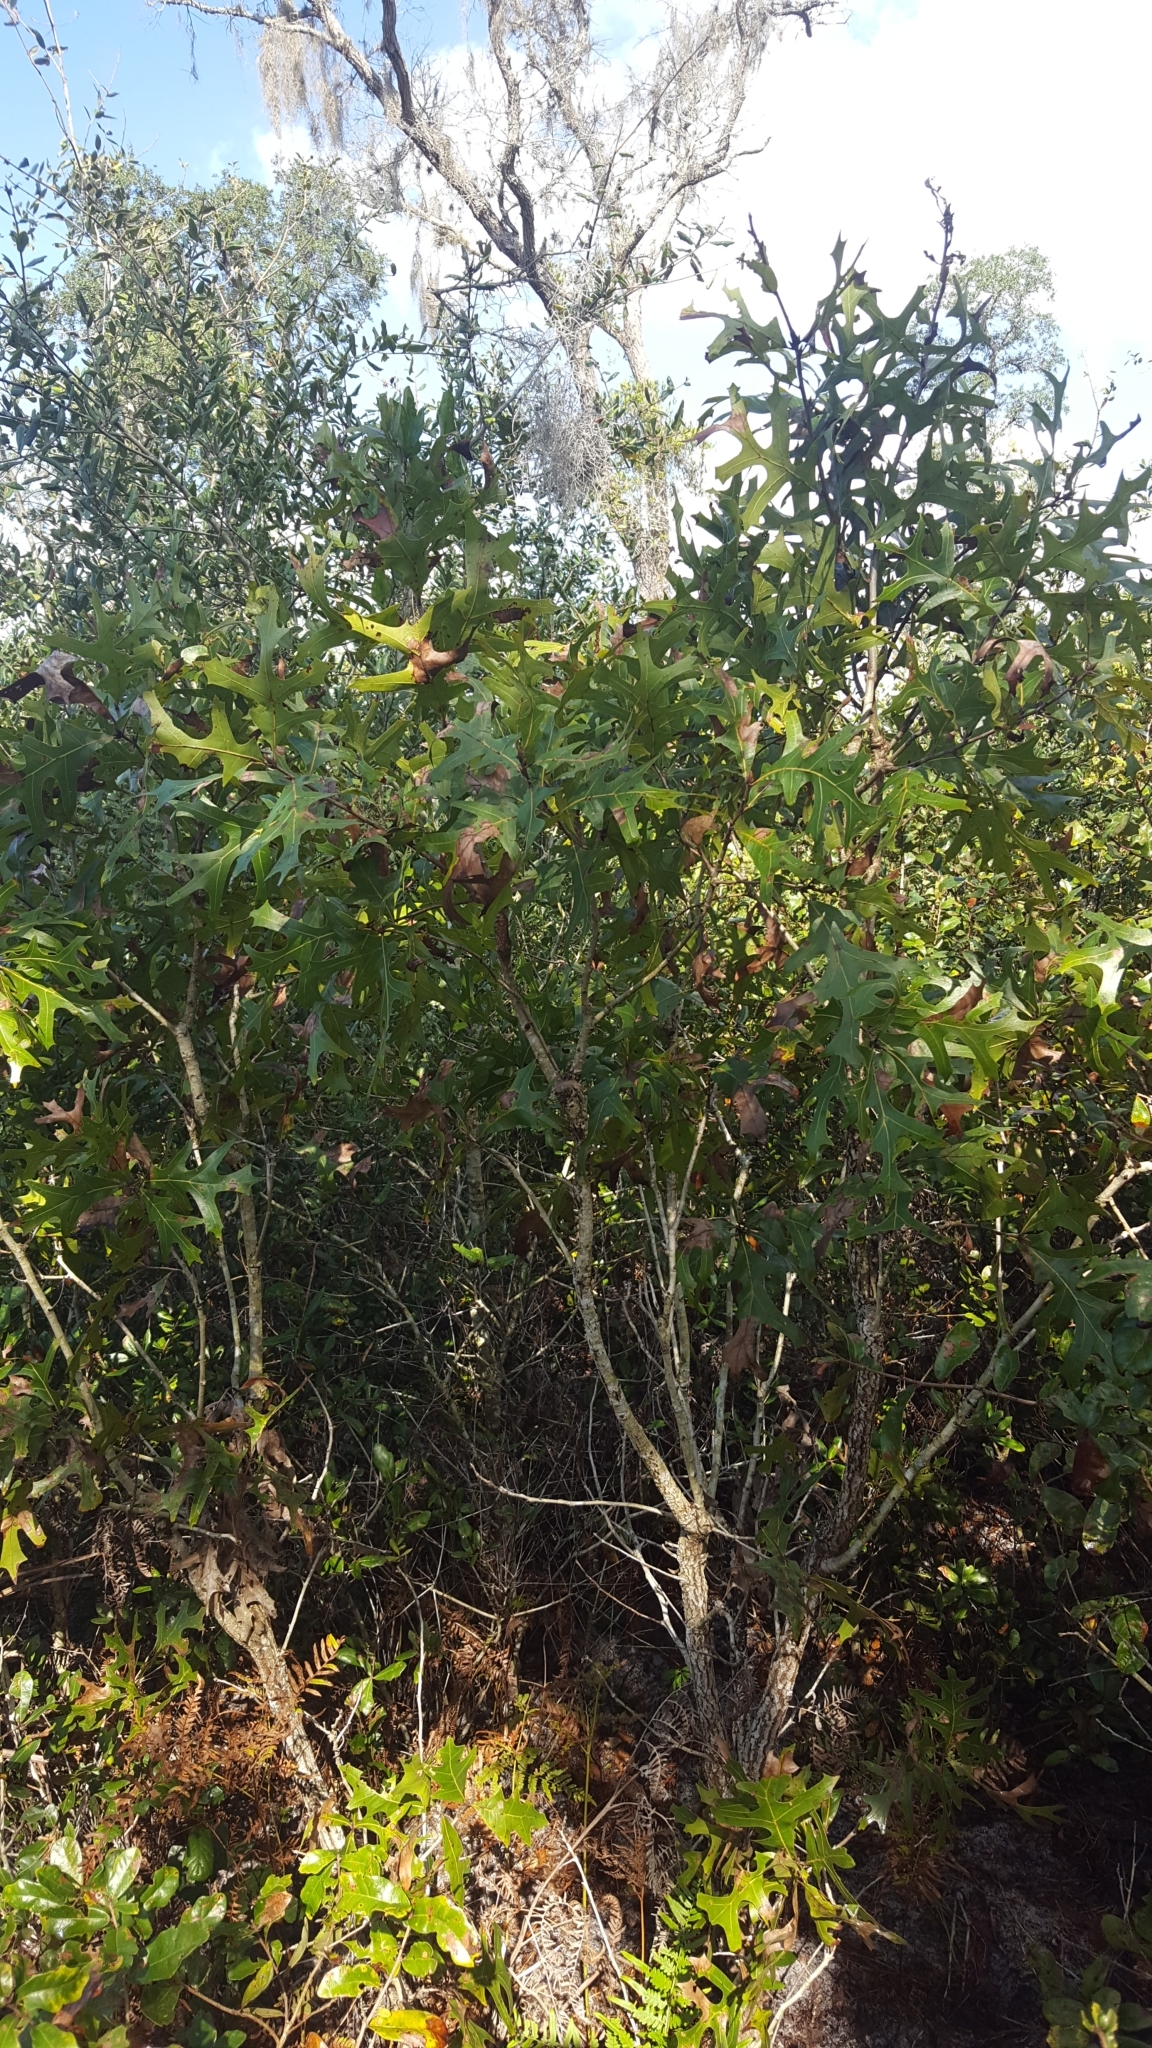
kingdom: Plantae
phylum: Tracheophyta
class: Magnoliopsida
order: Fagales
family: Fagaceae
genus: Quercus
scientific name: Quercus laevis
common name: Turkey oak
